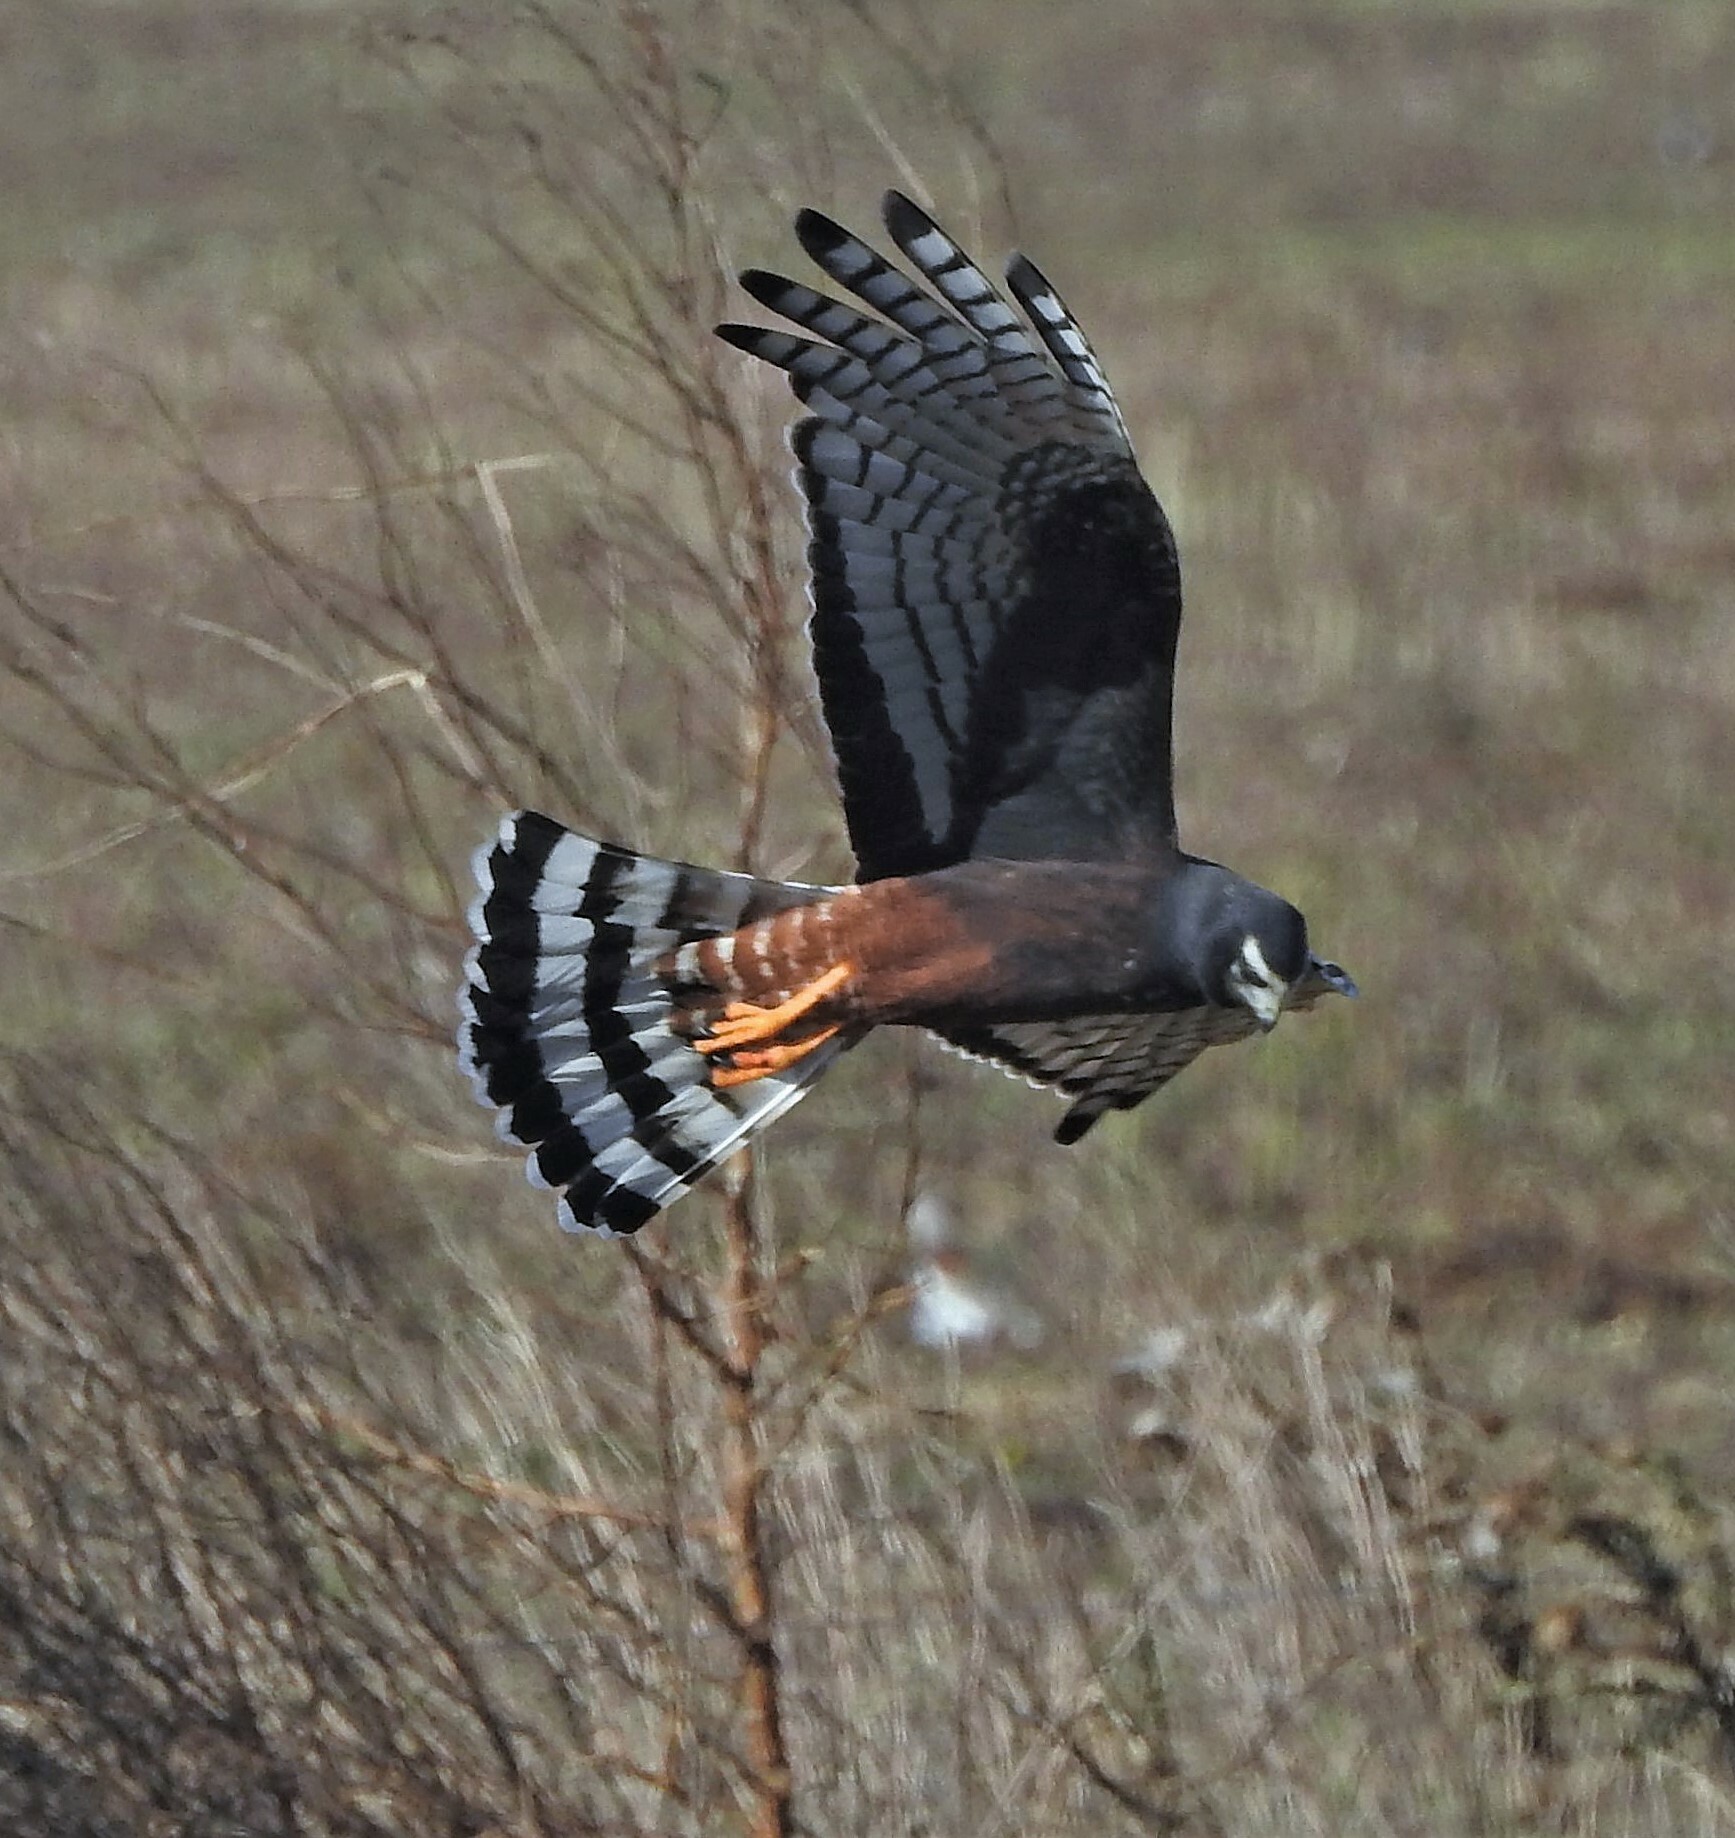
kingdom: Animalia
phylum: Chordata
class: Aves
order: Accipitriformes
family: Accipitridae
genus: Circus
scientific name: Circus buffoni
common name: Long-winged harrier
